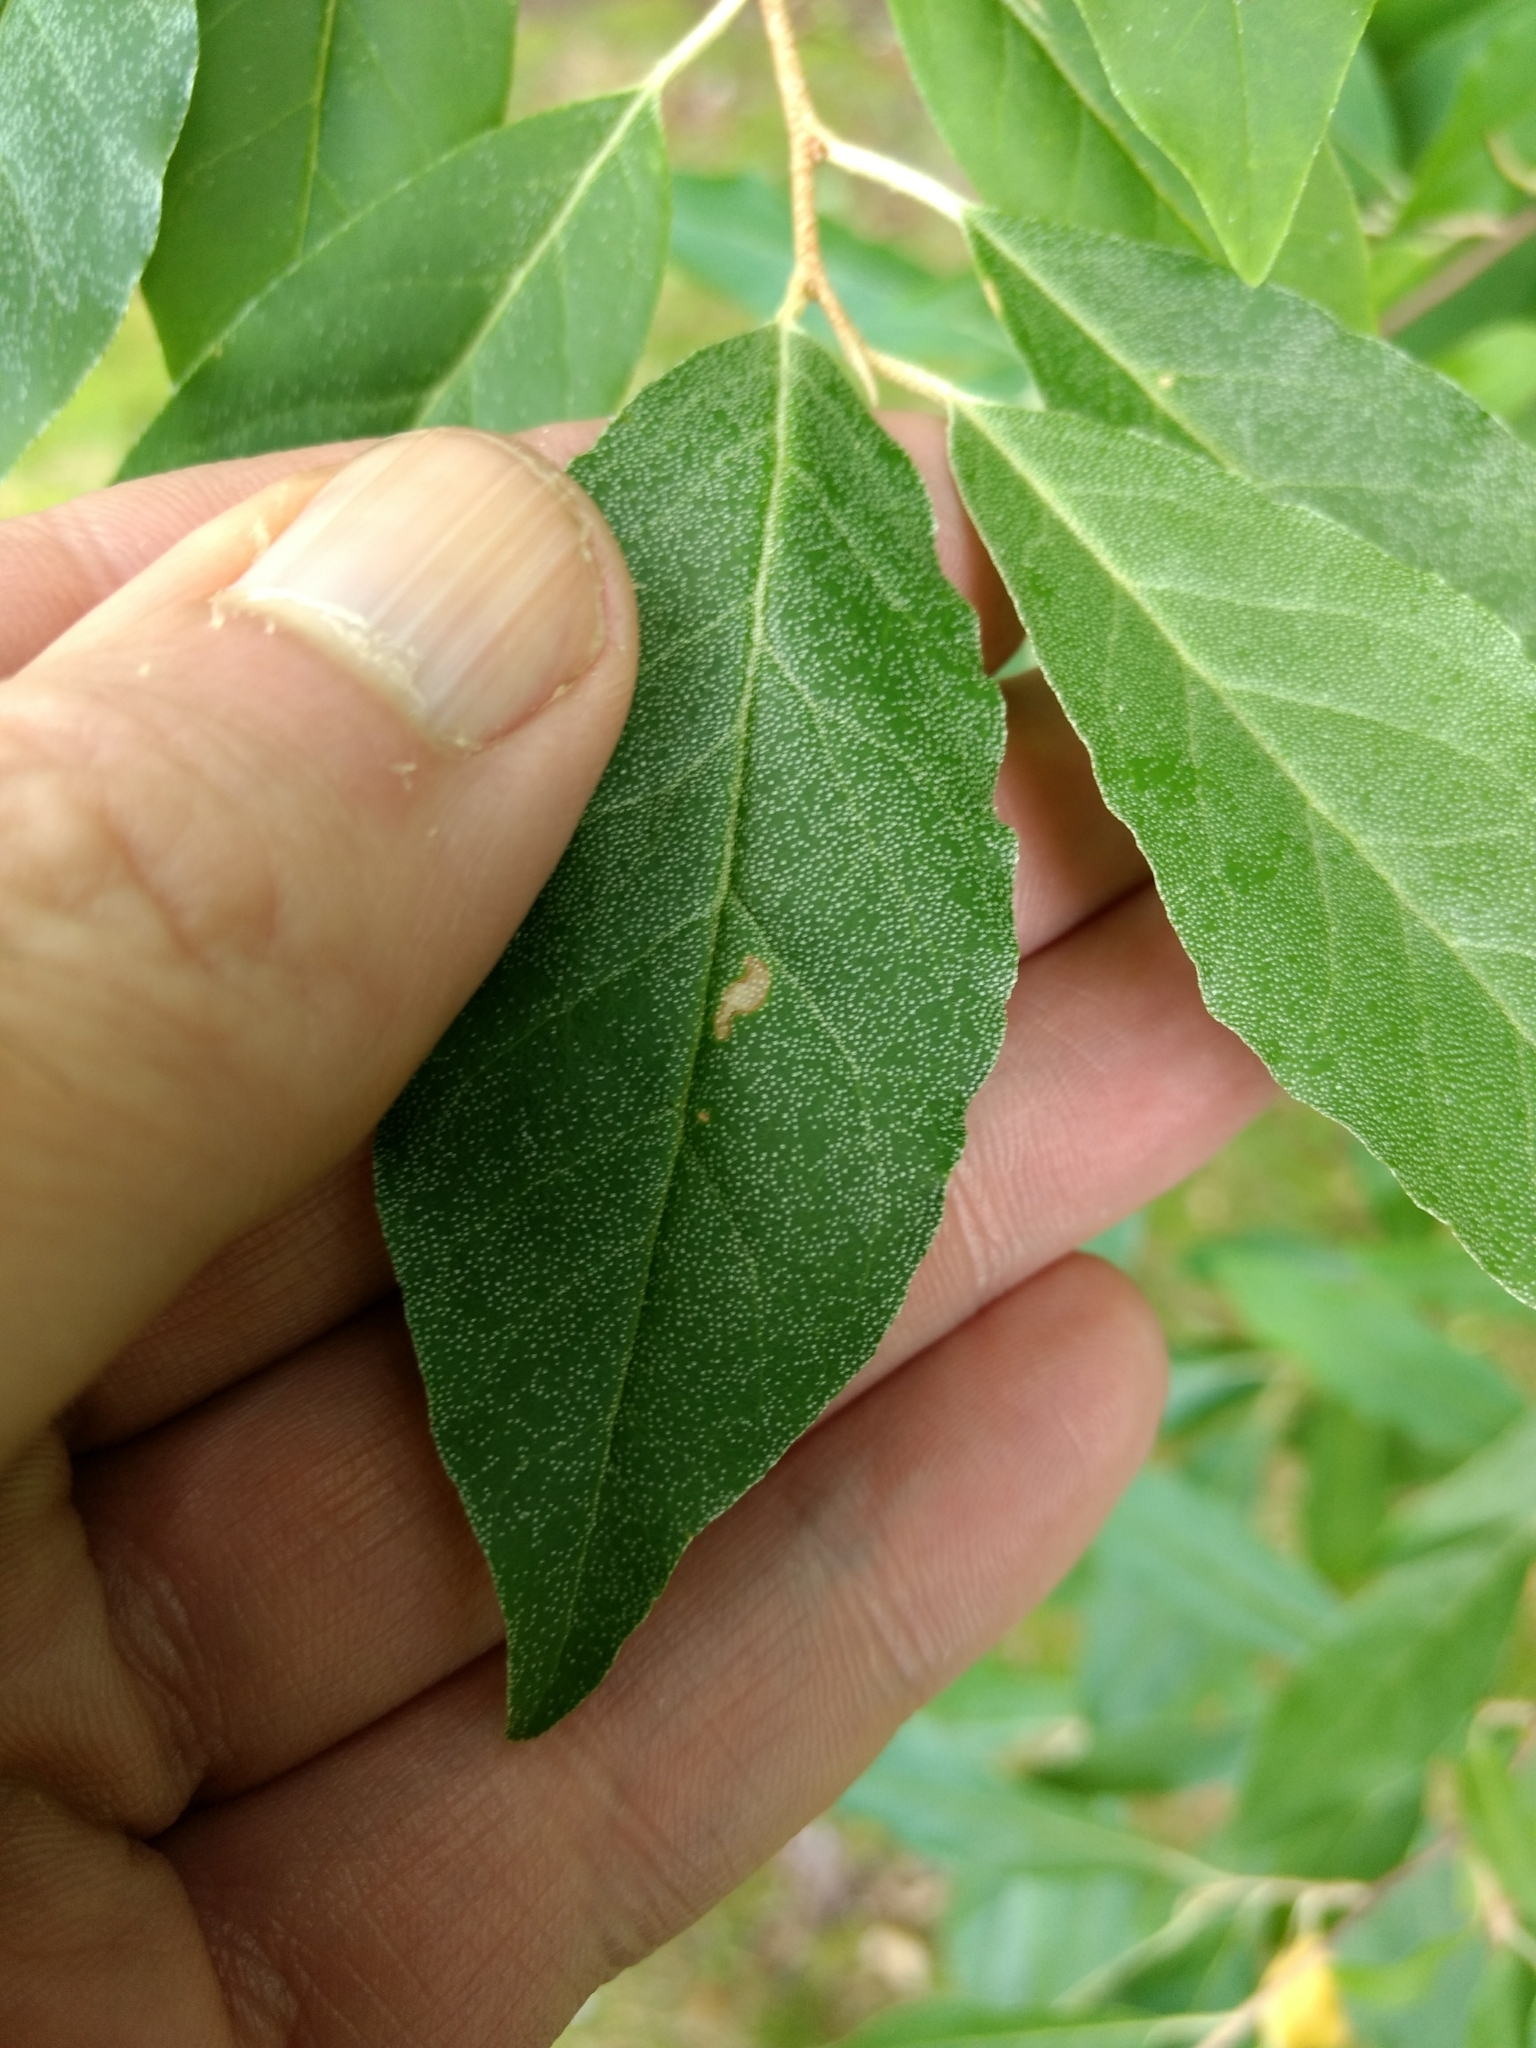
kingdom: Plantae
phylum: Tracheophyta
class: Magnoliopsida
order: Rosales
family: Elaeagnaceae
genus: Elaeagnus
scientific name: Elaeagnus umbellata
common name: Autumn olive
